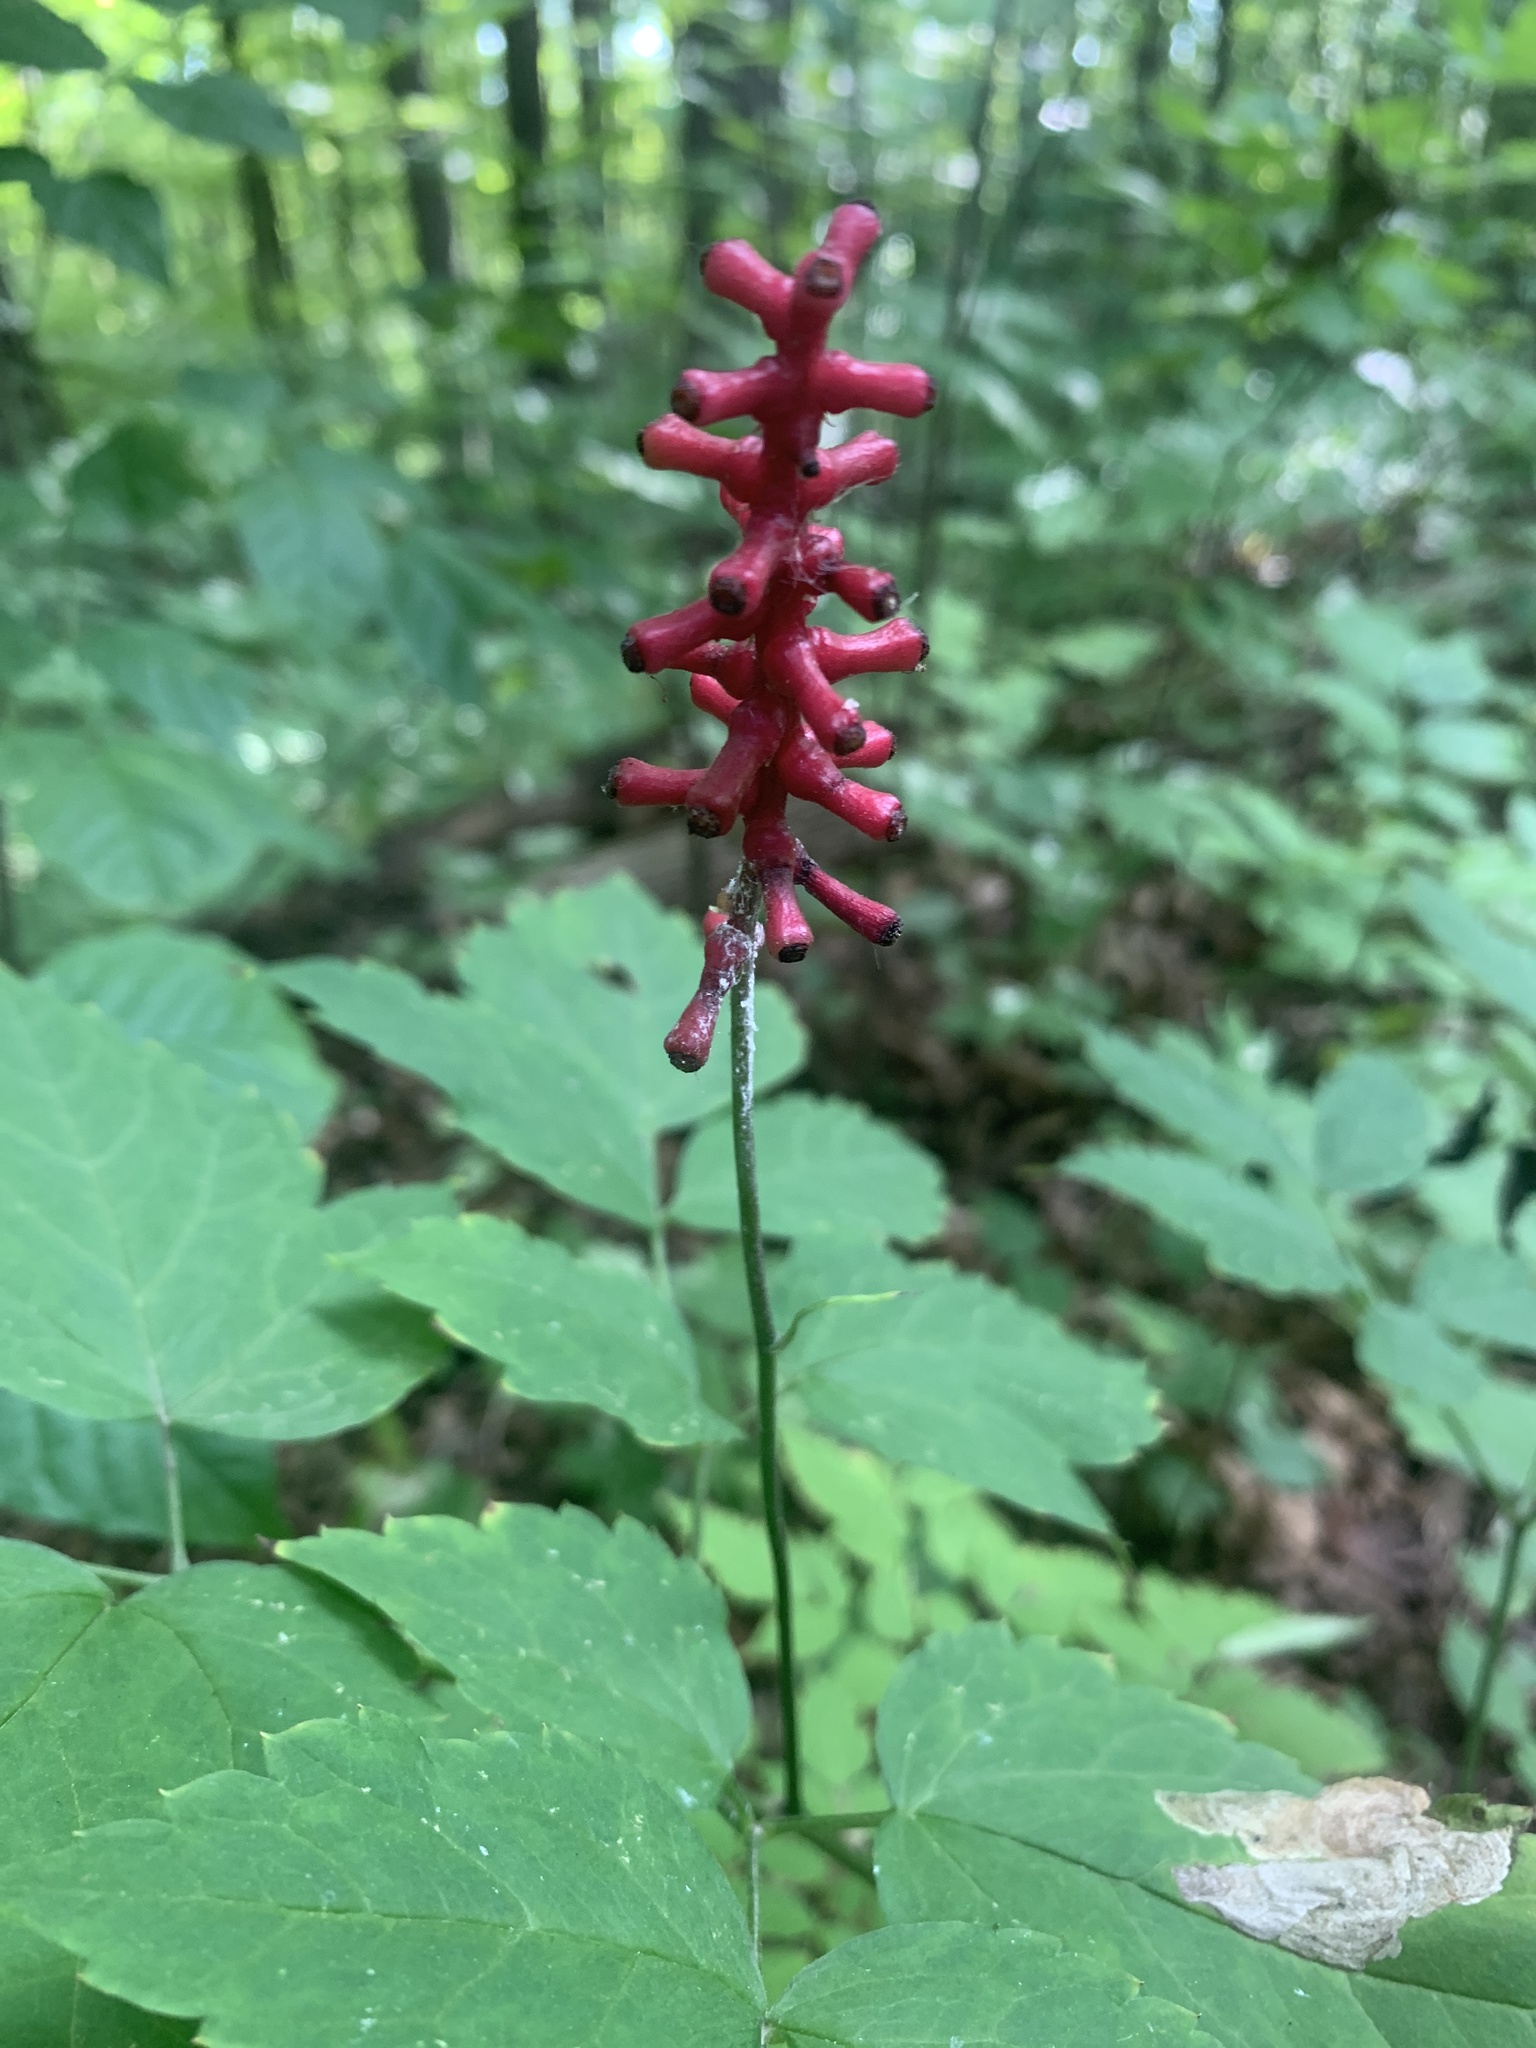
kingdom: Plantae
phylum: Tracheophyta
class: Magnoliopsida
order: Ranunculales
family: Ranunculaceae
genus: Actaea
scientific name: Actaea pachypoda
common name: Doll's-eyes
